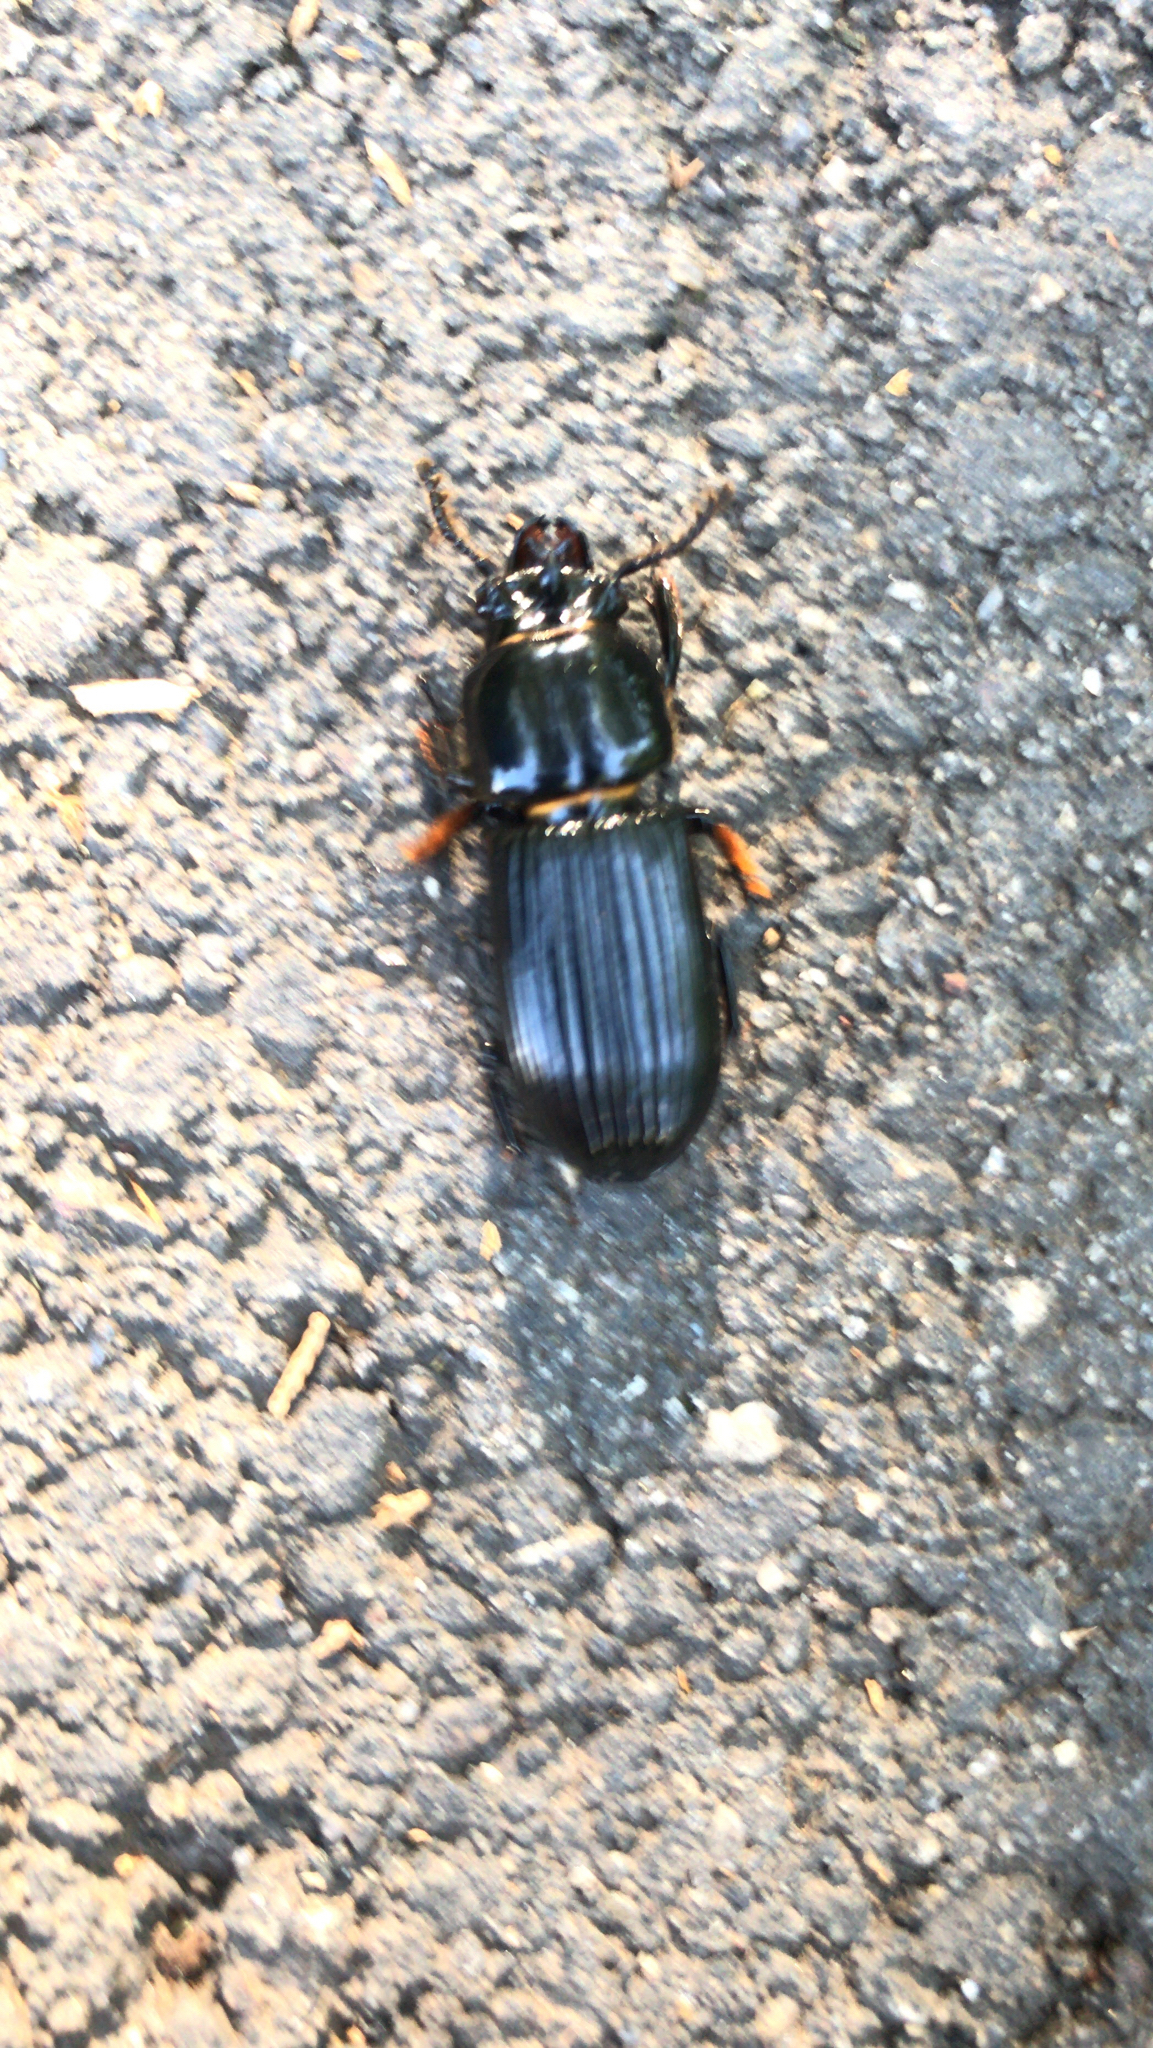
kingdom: Animalia
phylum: Arthropoda
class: Insecta
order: Coleoptera
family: Passalidae
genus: Odontotaenius
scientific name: Odontotaenius disjunctus
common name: Patent leather beetle
